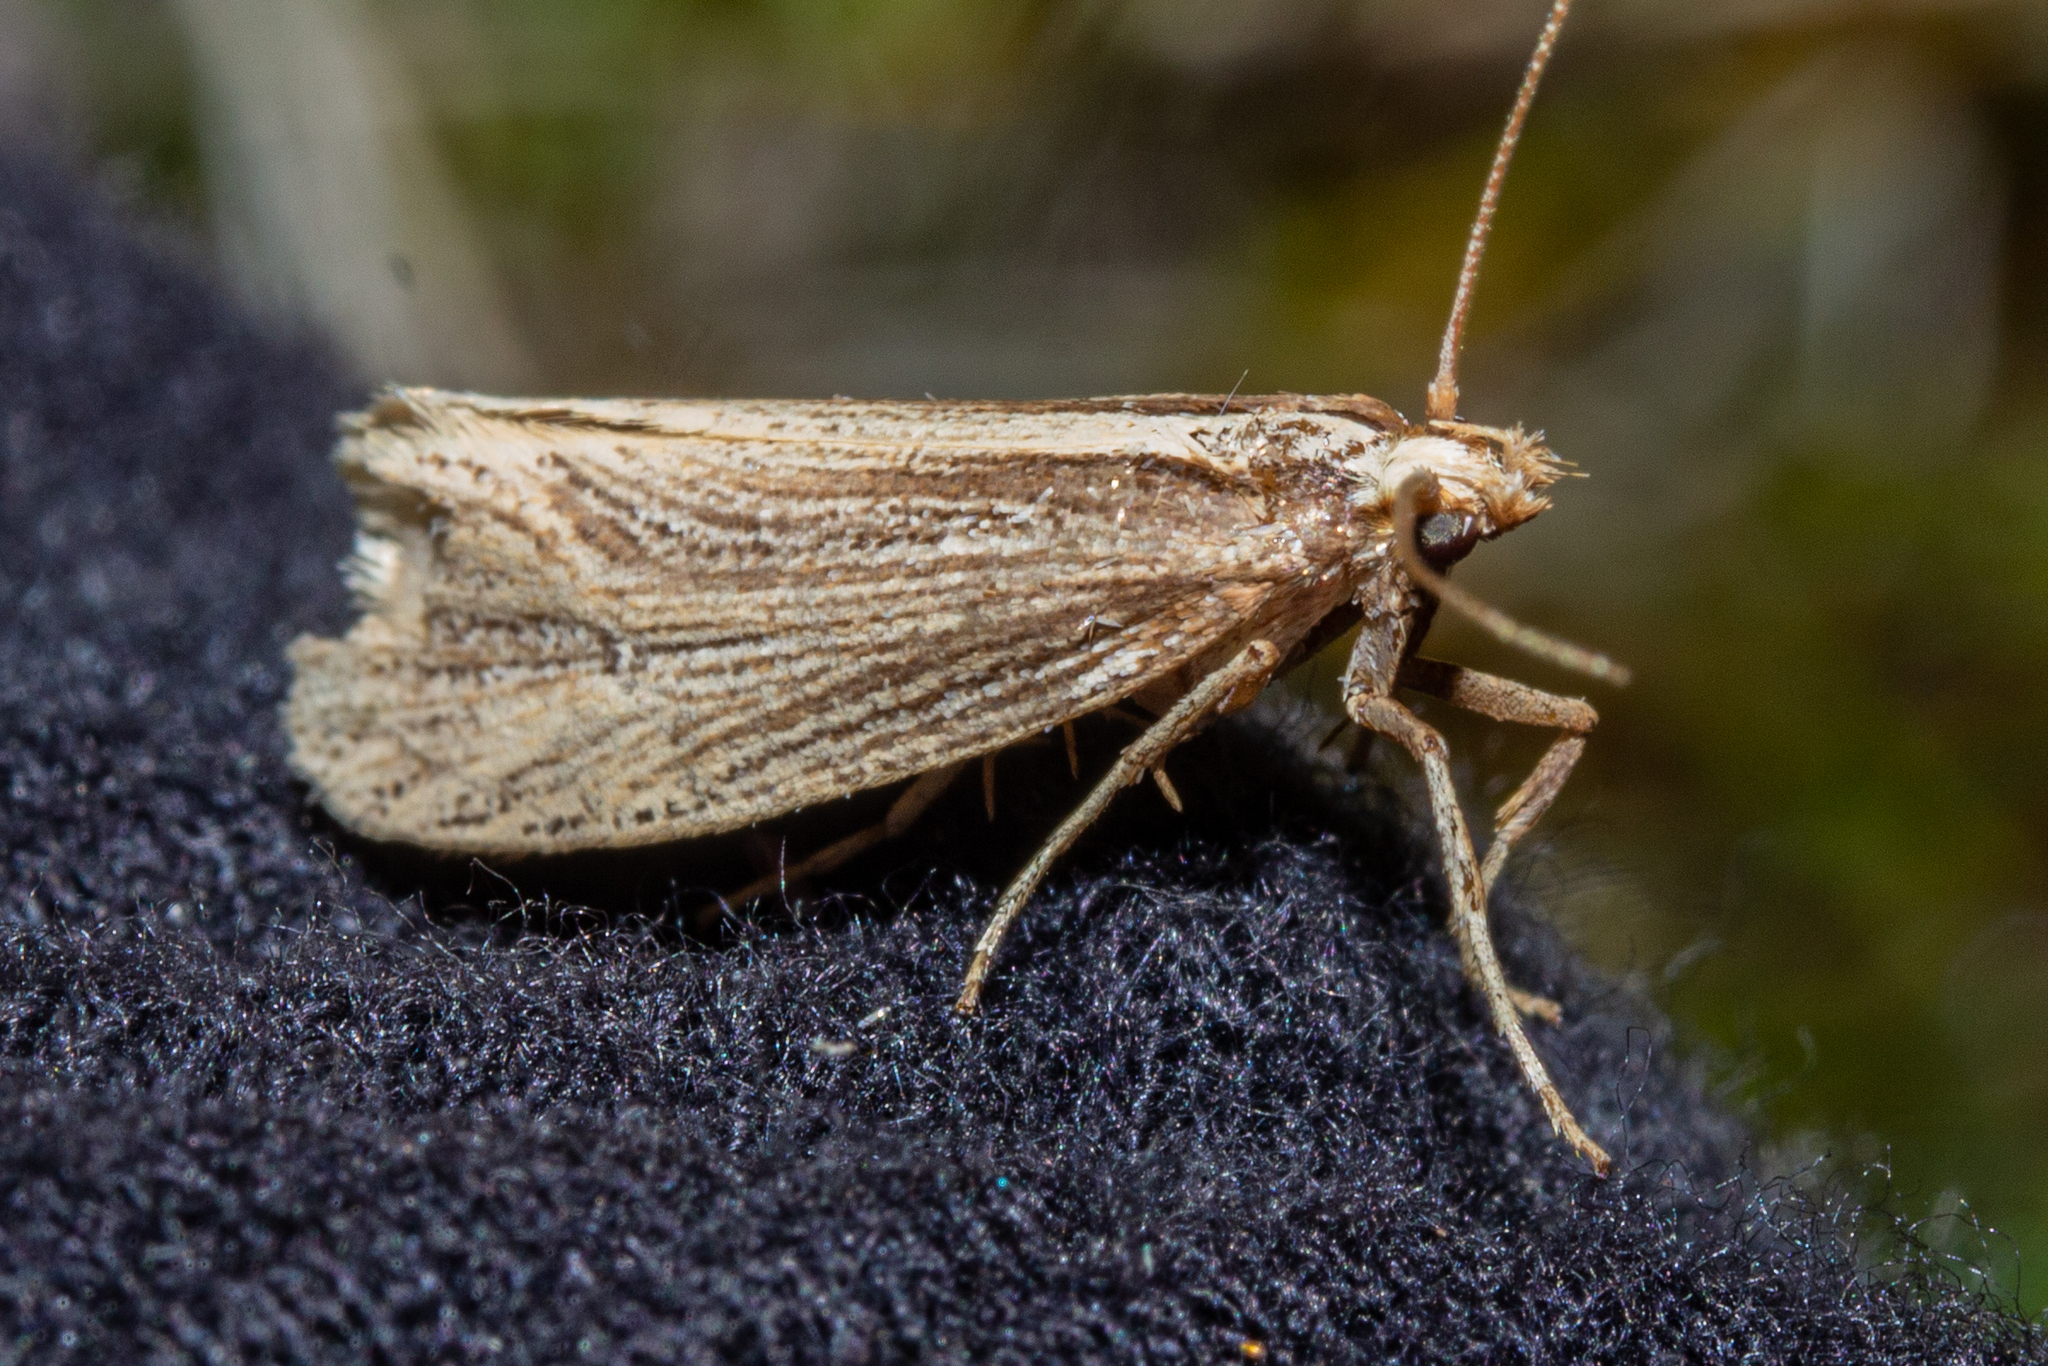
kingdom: Animalia
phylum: Arthropoda
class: Insecta
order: Lepidoptera
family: Plutellidae
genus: Proditrix
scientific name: Proditrix megalynta
